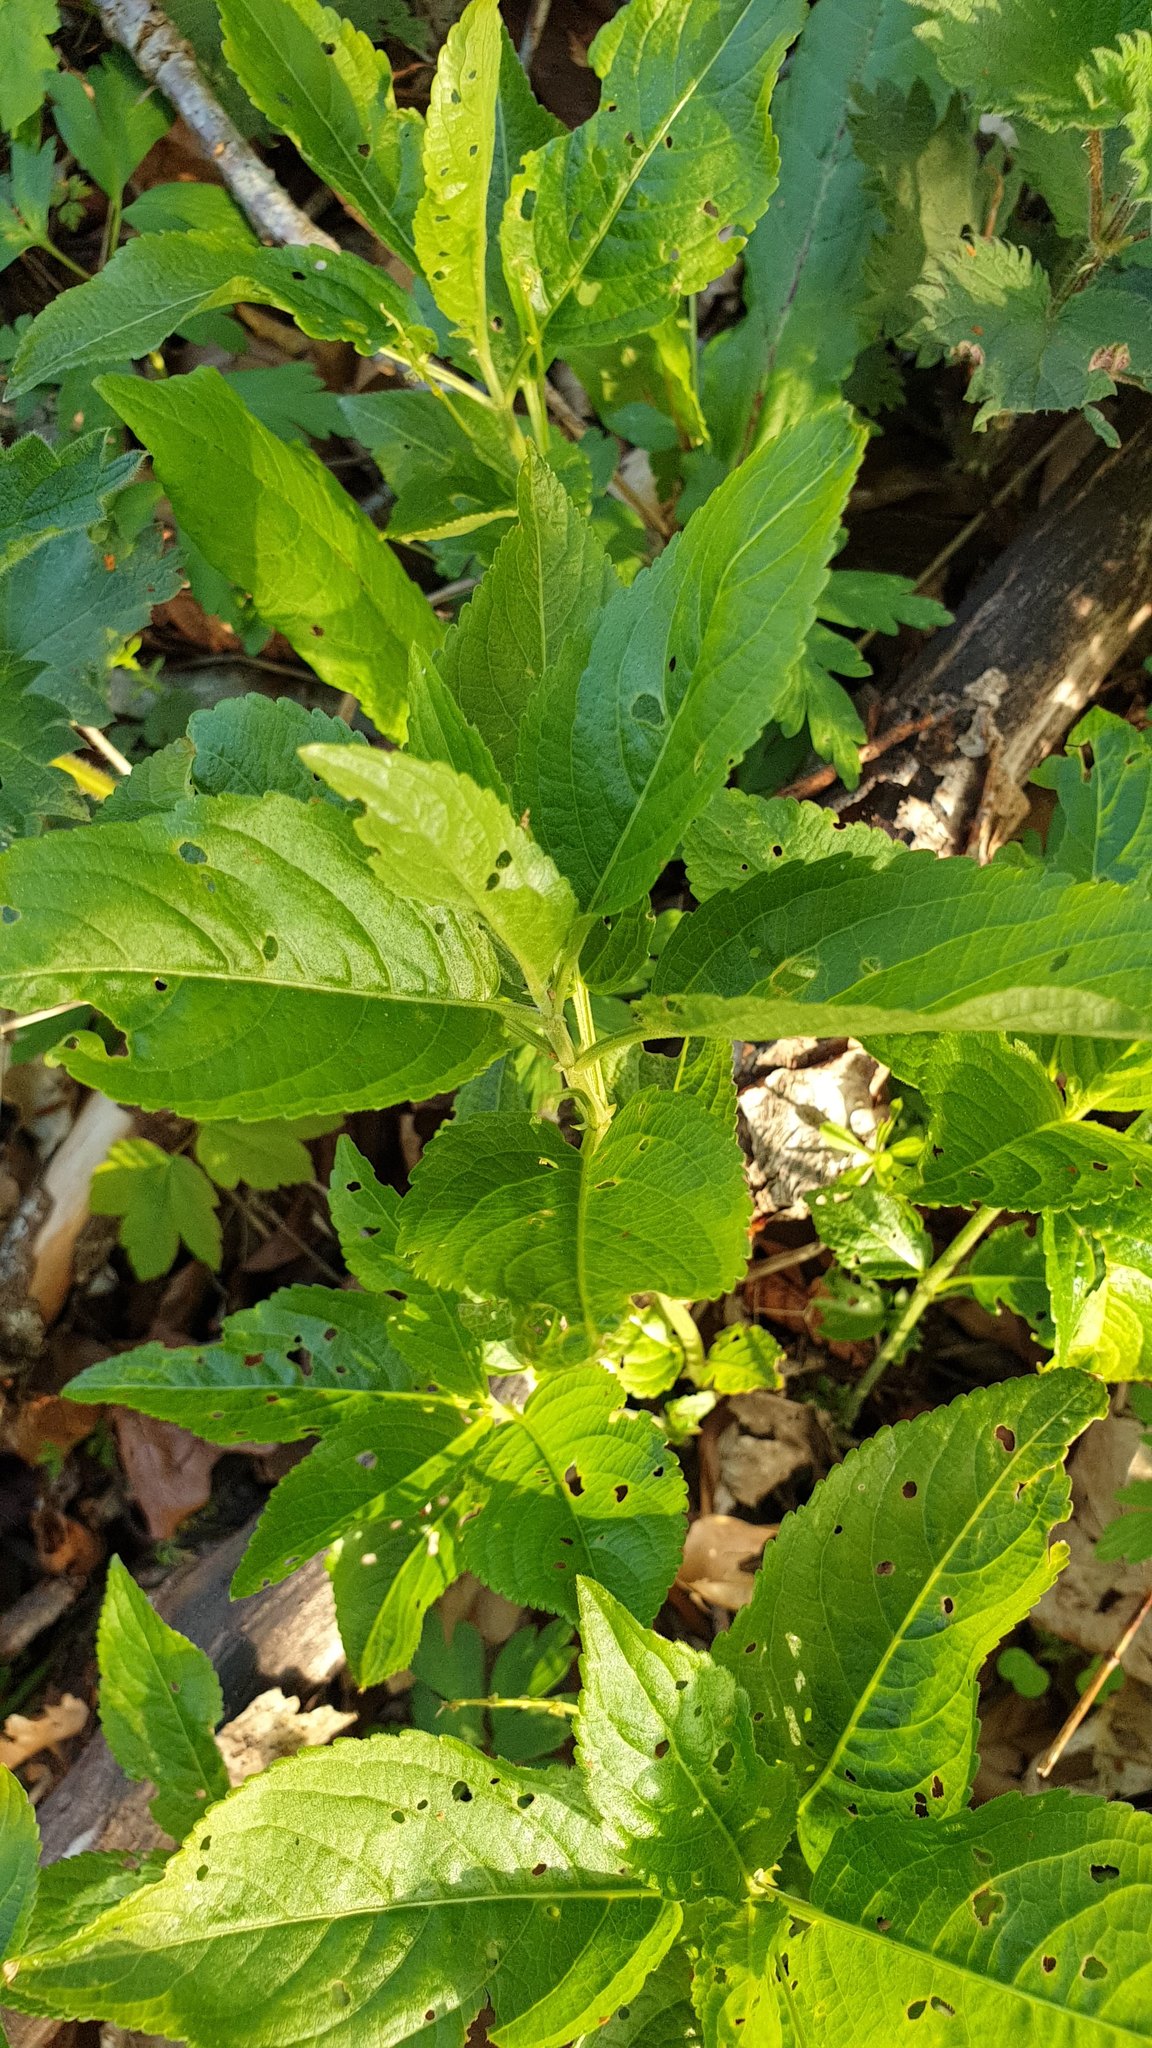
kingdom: Plantae
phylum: Tracheophyta
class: Magnoliopsida
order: Malpighiales
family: Euphorbiaceae
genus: Mercurialis
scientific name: Mercurialis perennis
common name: Dog mercury
